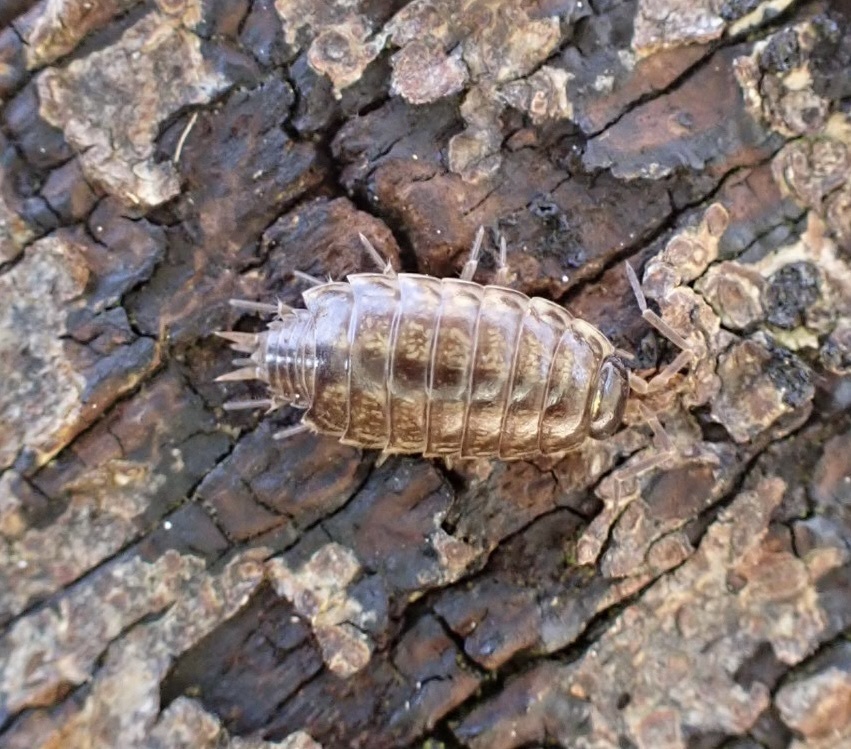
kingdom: Animalia
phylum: Arthropoda
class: Malacostraca
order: Isopoda
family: Philosciidae
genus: Philoscia
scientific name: Philoscia muscorum
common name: Common striped woodlouse
